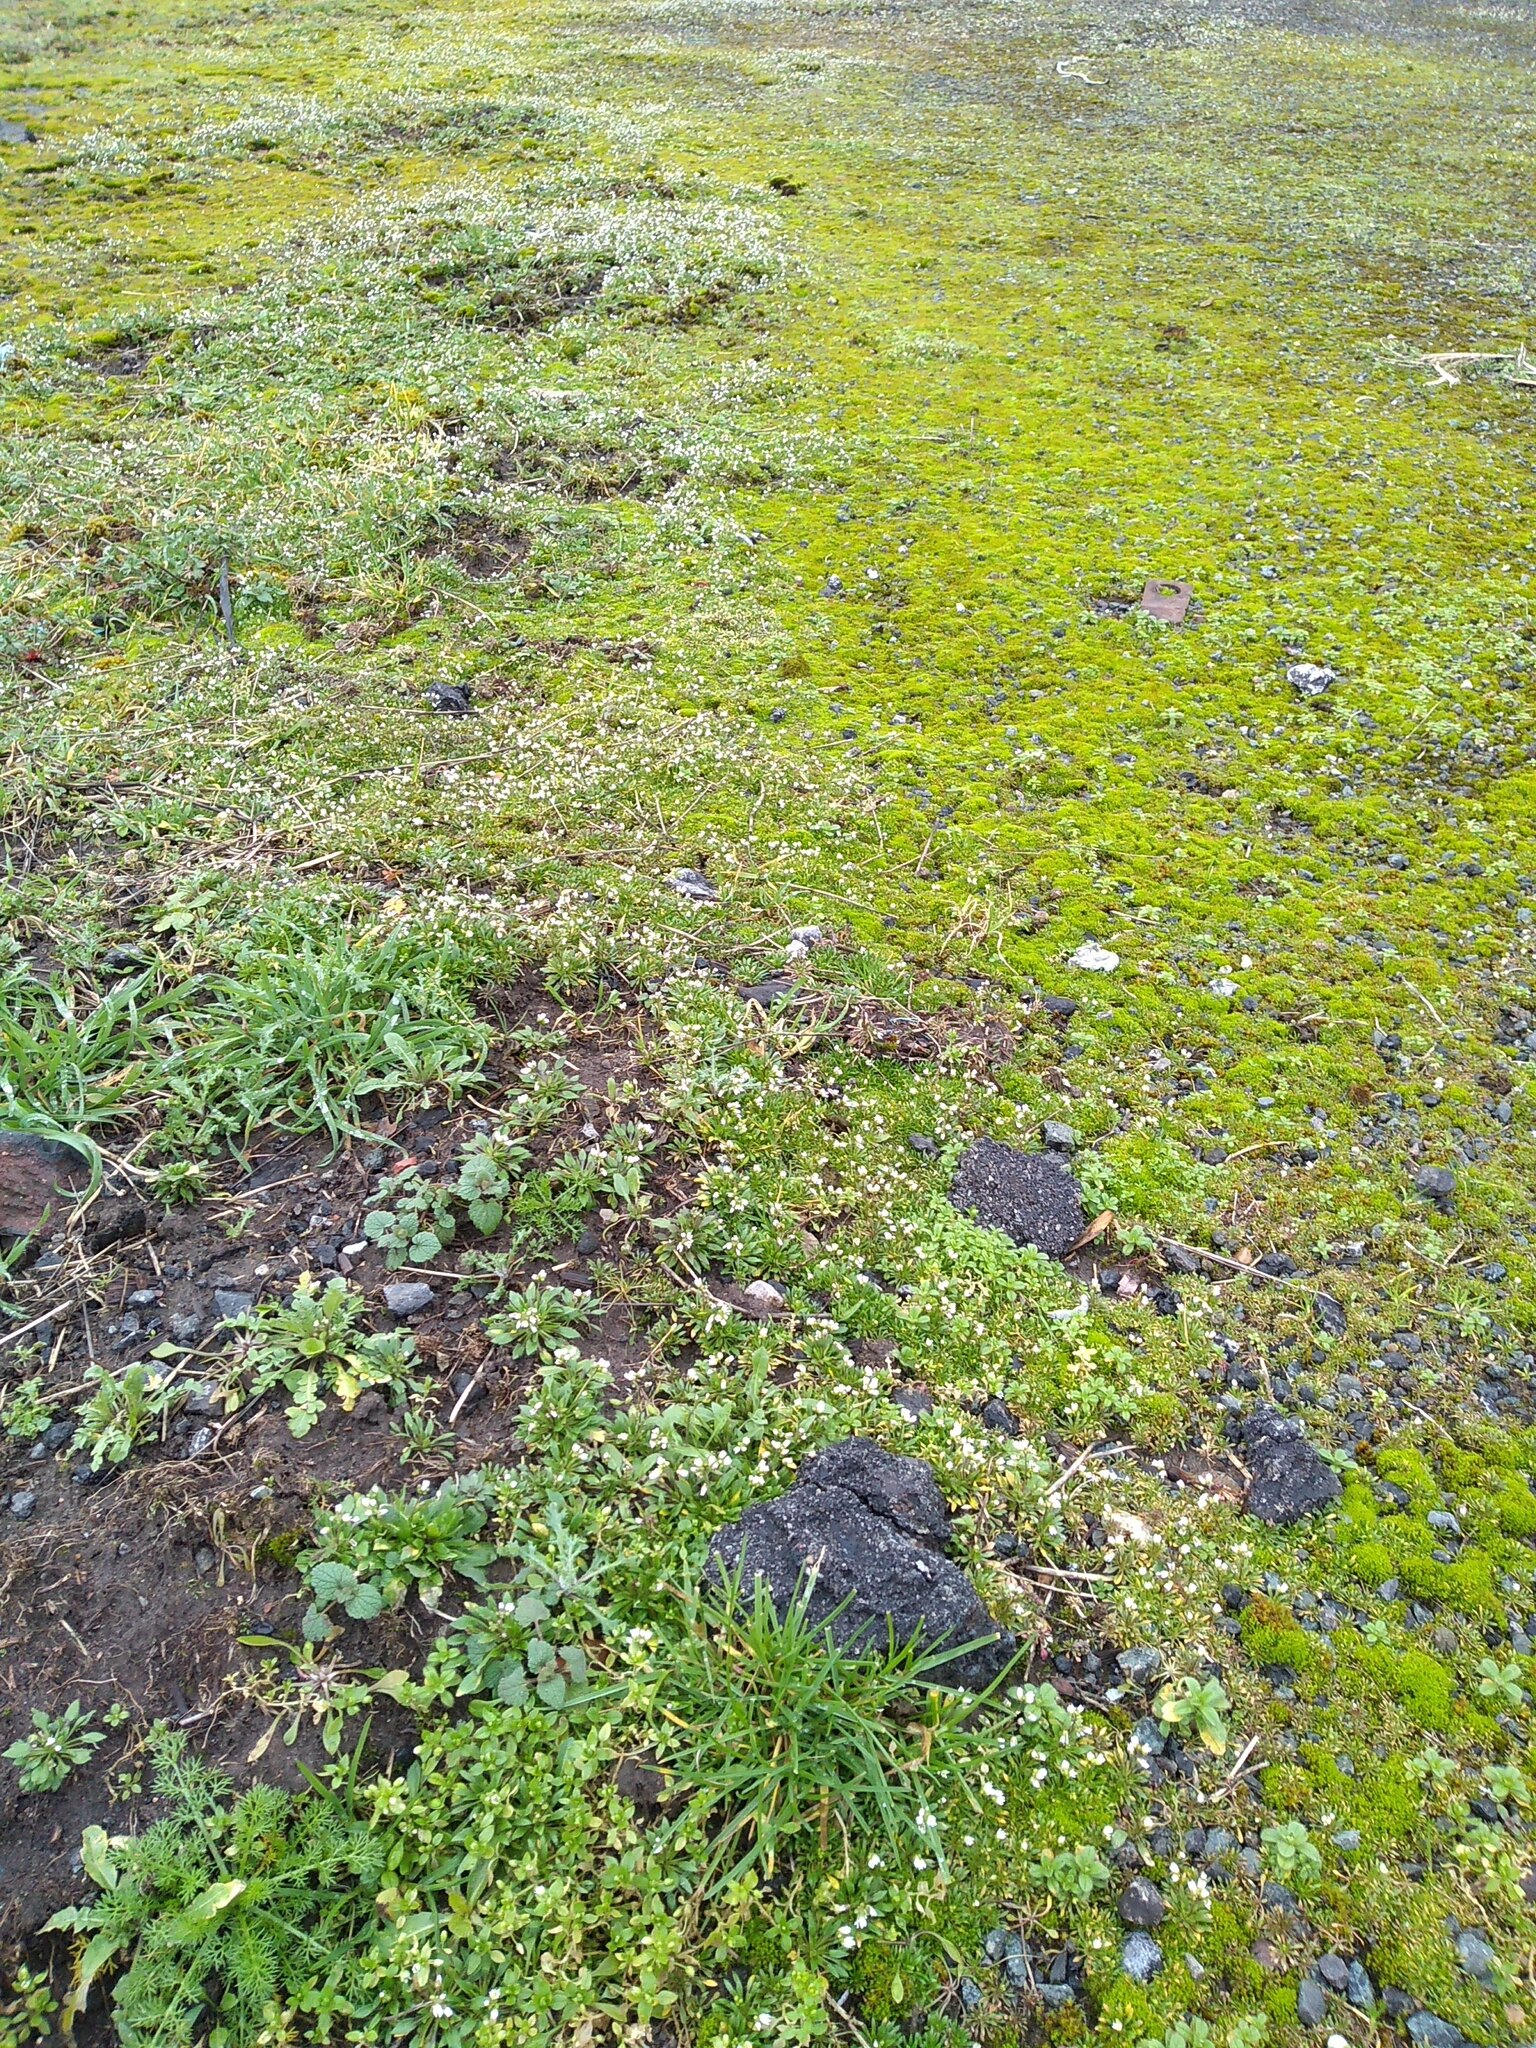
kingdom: Plantae
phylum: Tracheophyta
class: Magnoliopsida
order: Brassicales
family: Brassicaceae
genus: Draba
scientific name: Draba verna
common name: Spring draba
